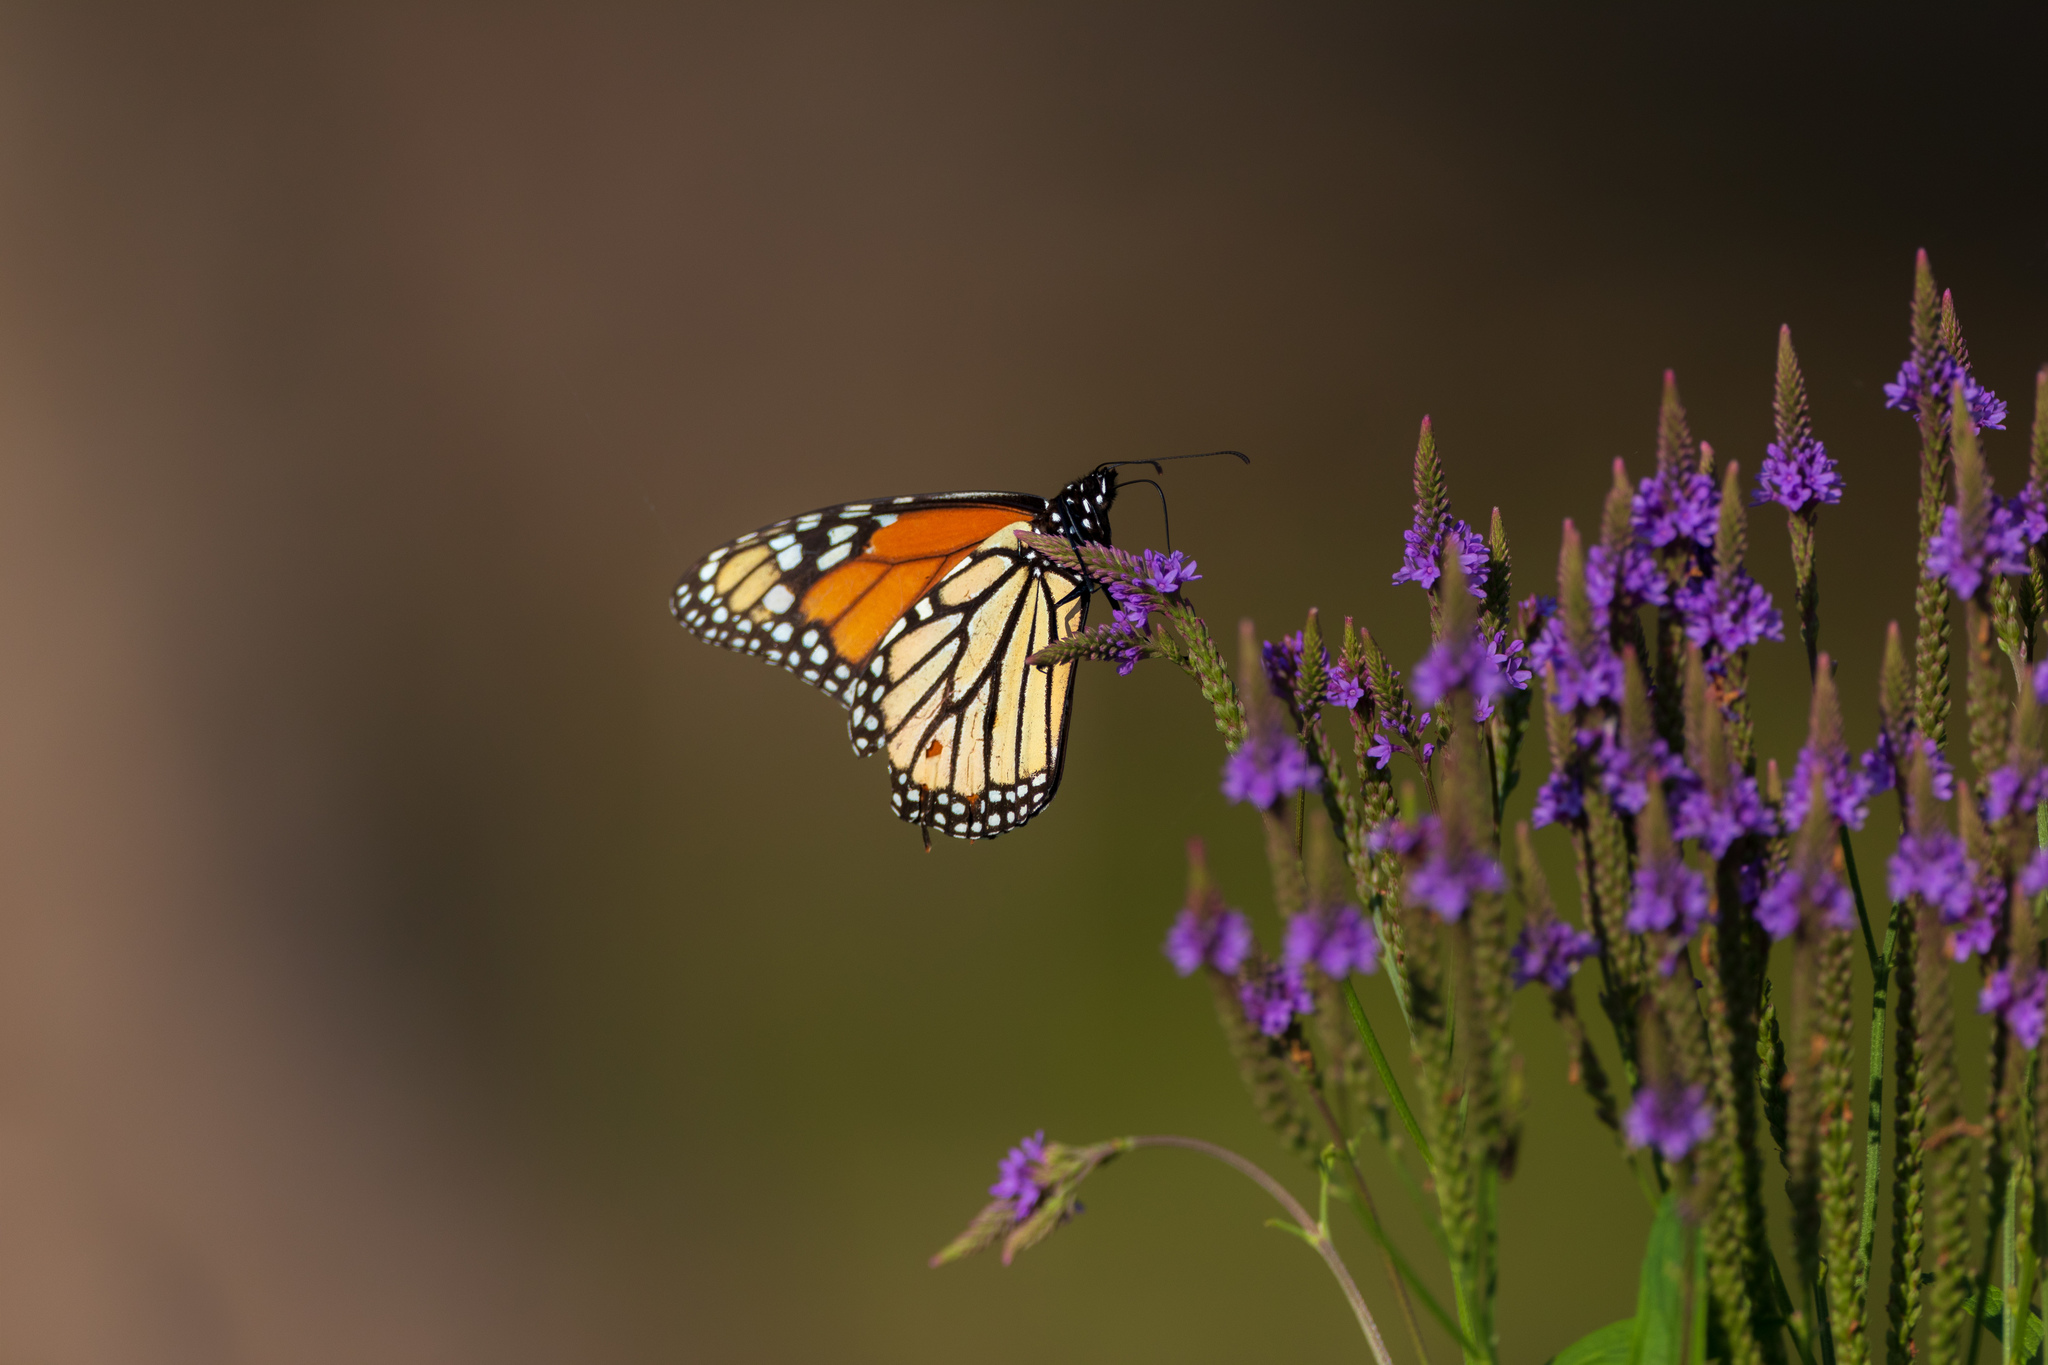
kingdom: Animalia
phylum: Arthropoda
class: Insecta
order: Lepidoptera
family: Nymphalidae
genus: Danaus
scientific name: Danaus plexippus
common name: Monarch
